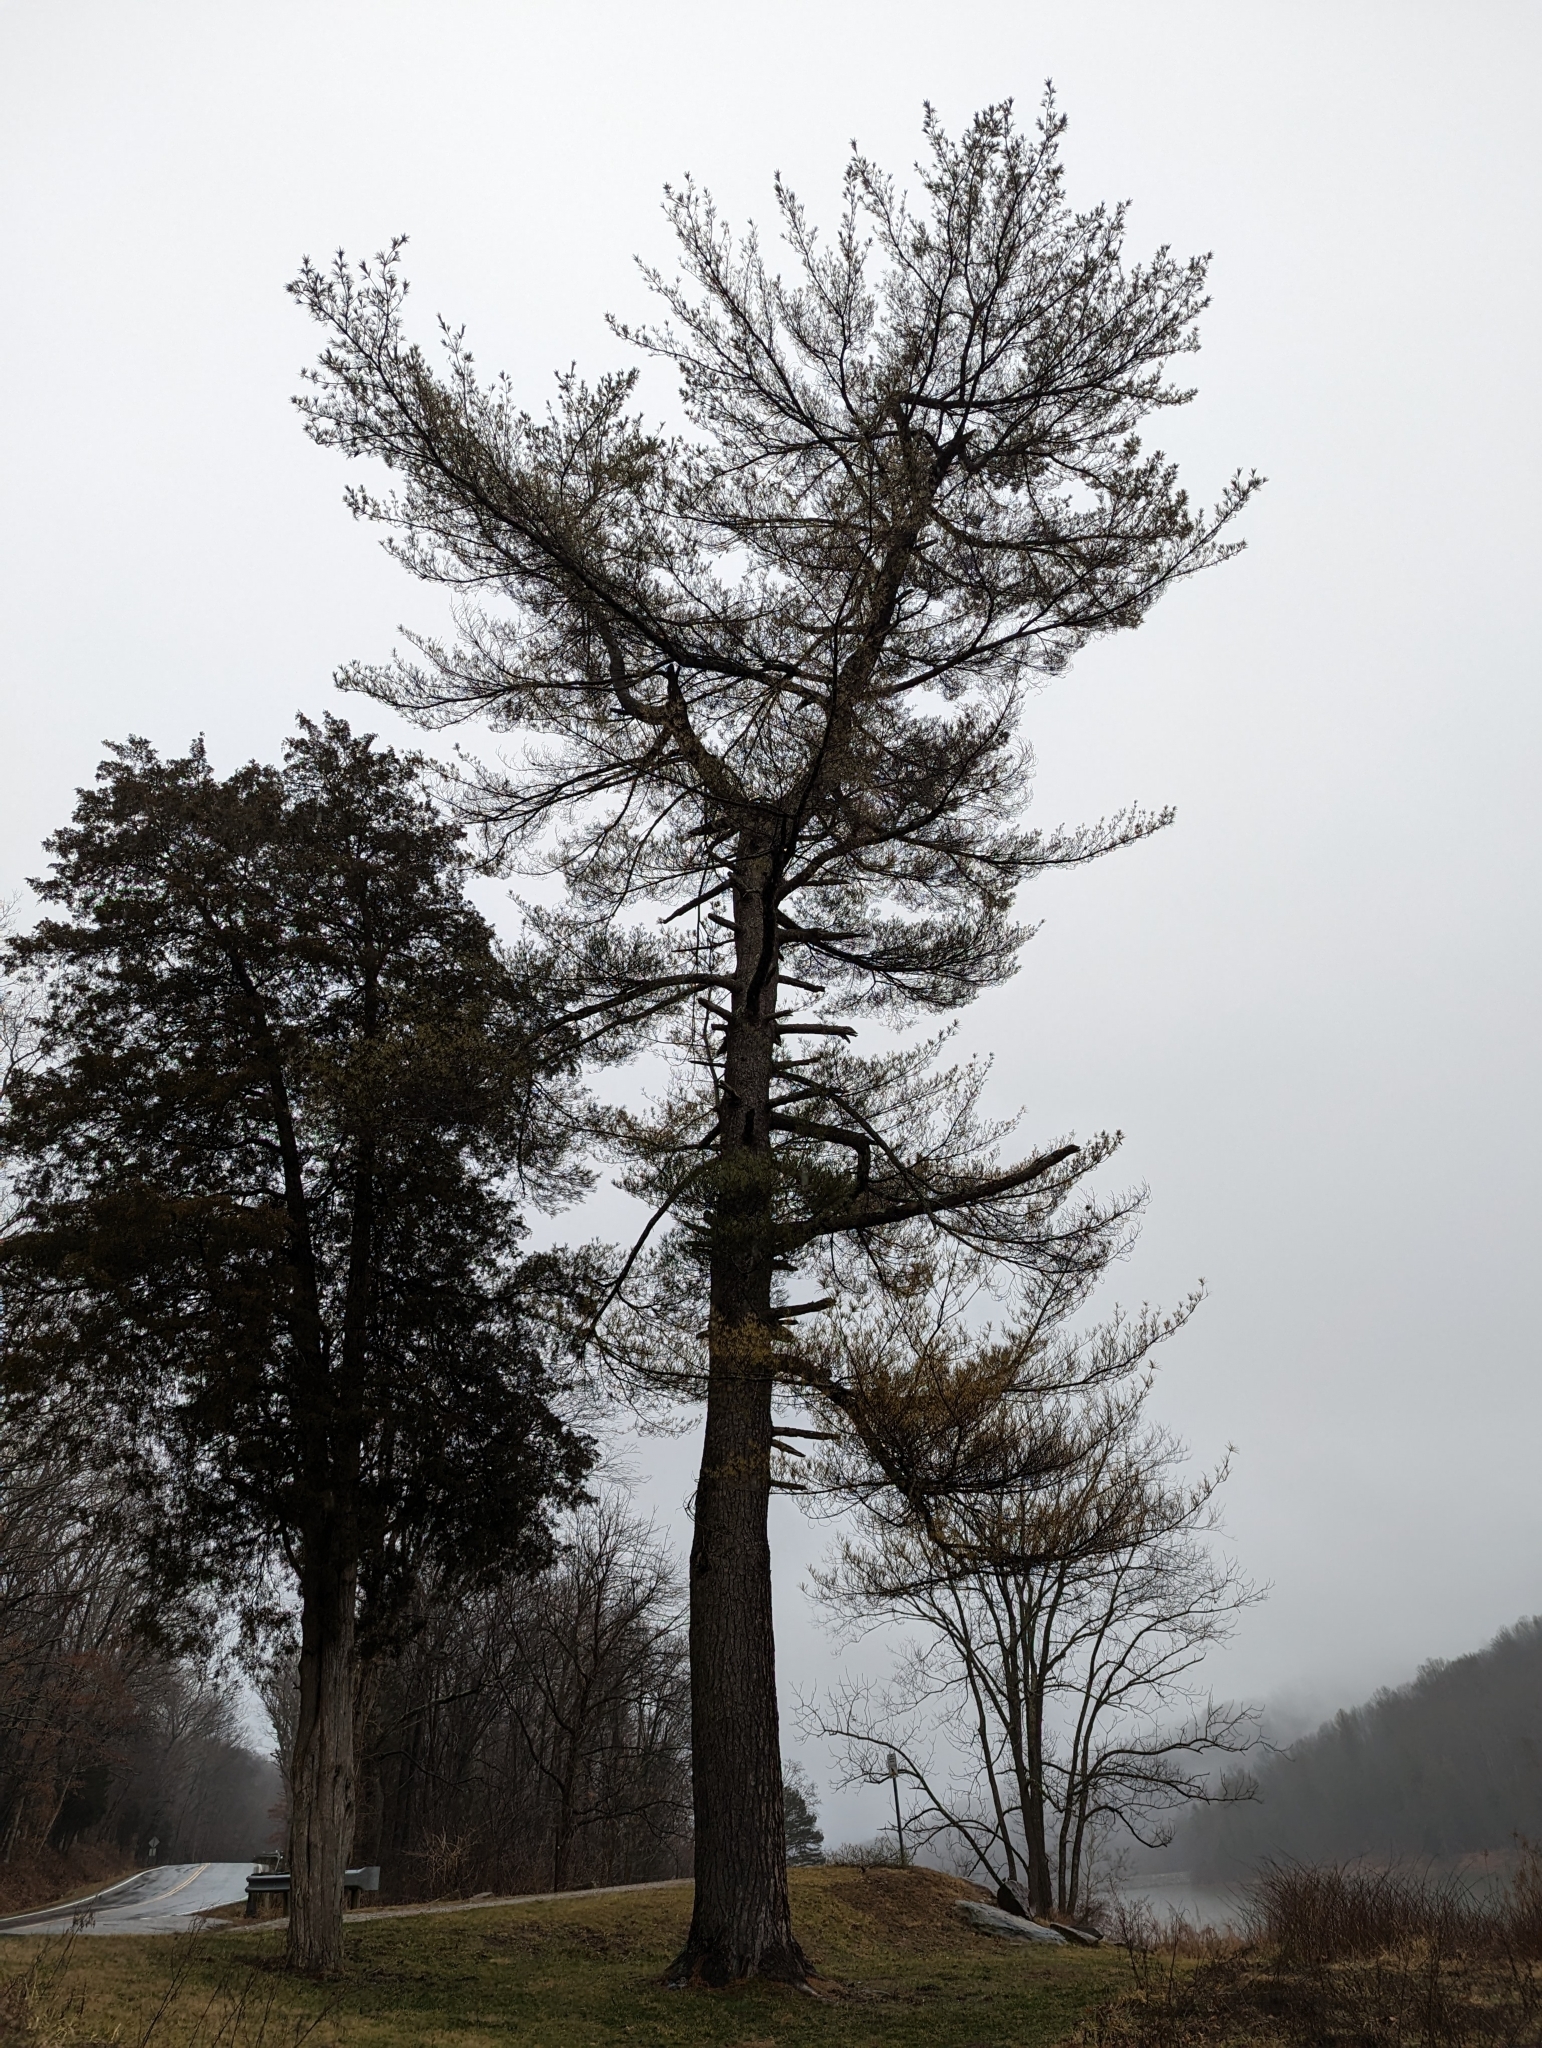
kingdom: Plantae
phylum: Tracheophyta
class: Pinopsida
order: Pinales
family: Pinaceae
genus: Pinus
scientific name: Pinus strobus
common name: Weymouth pine
